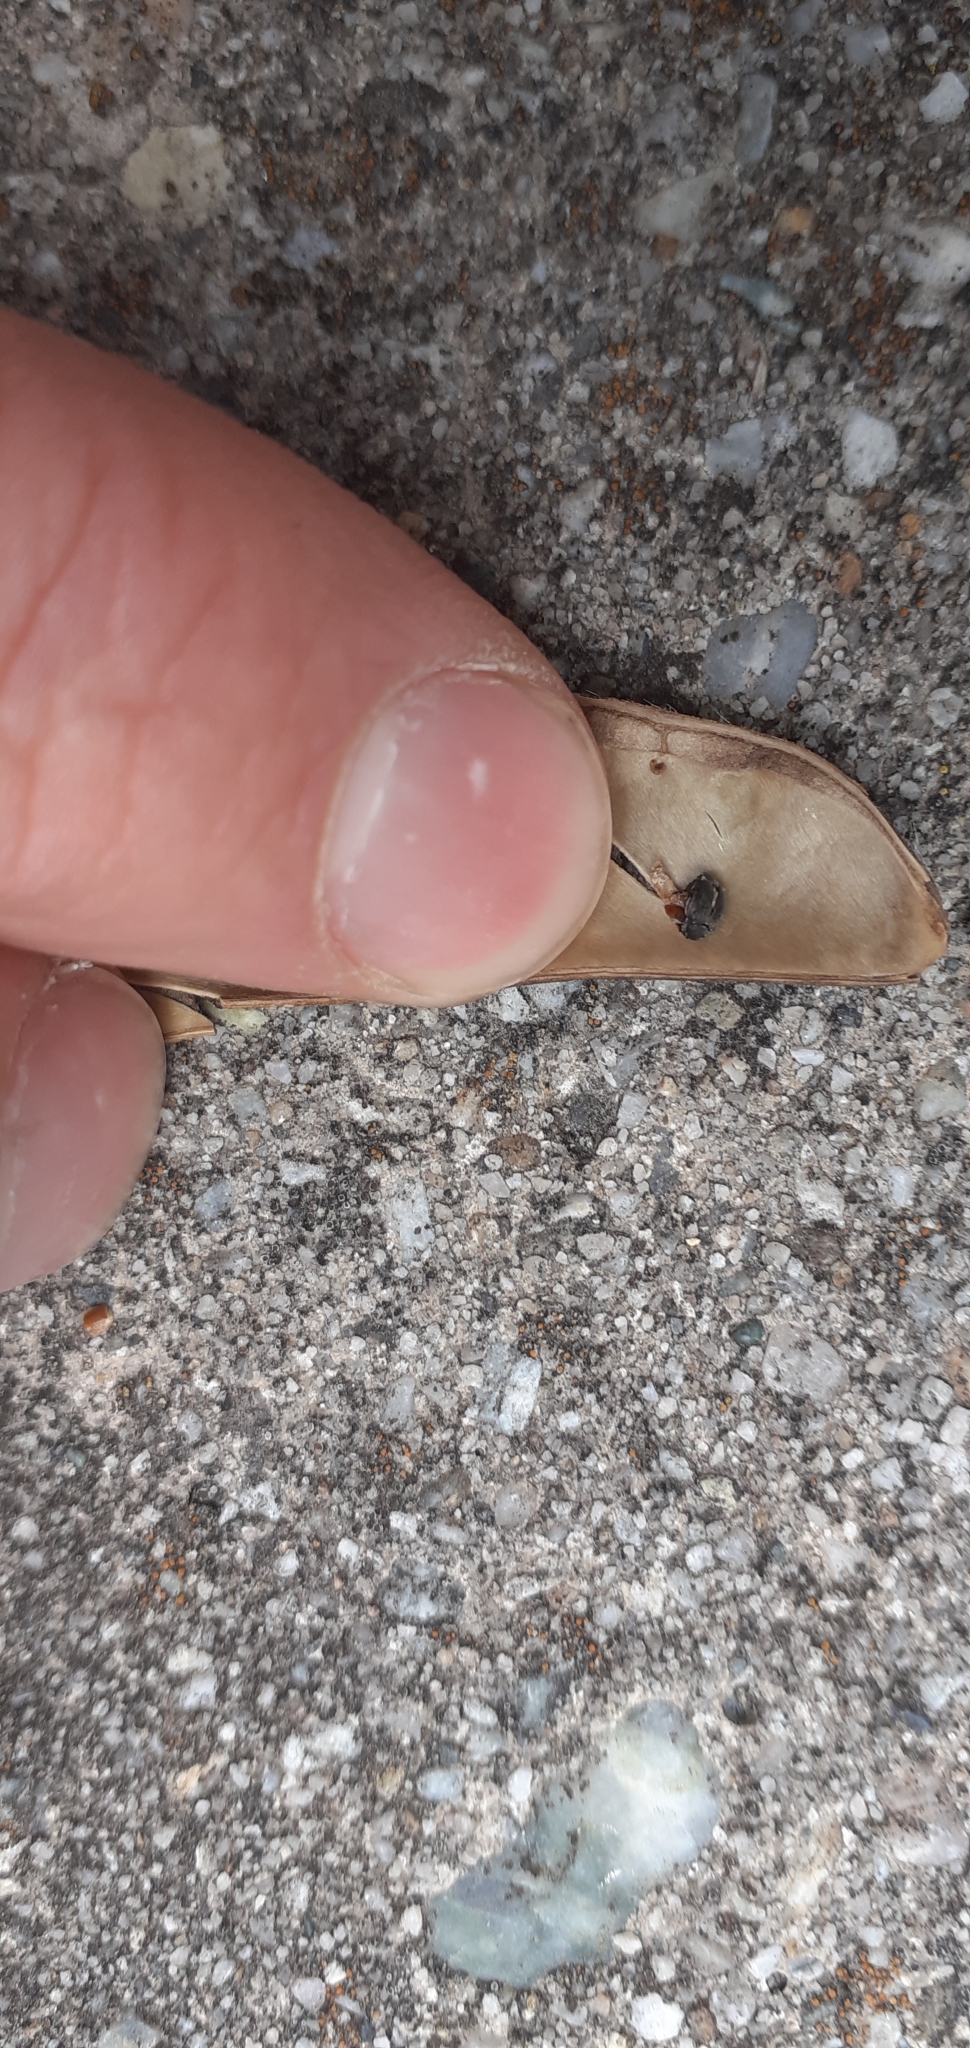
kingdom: Animalia
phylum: Arthropoda
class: Insecta
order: Coleoptera
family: Chrysomelidae
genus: Bruchidius
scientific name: Bruchidius villosus
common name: Scotch broom bruchid
